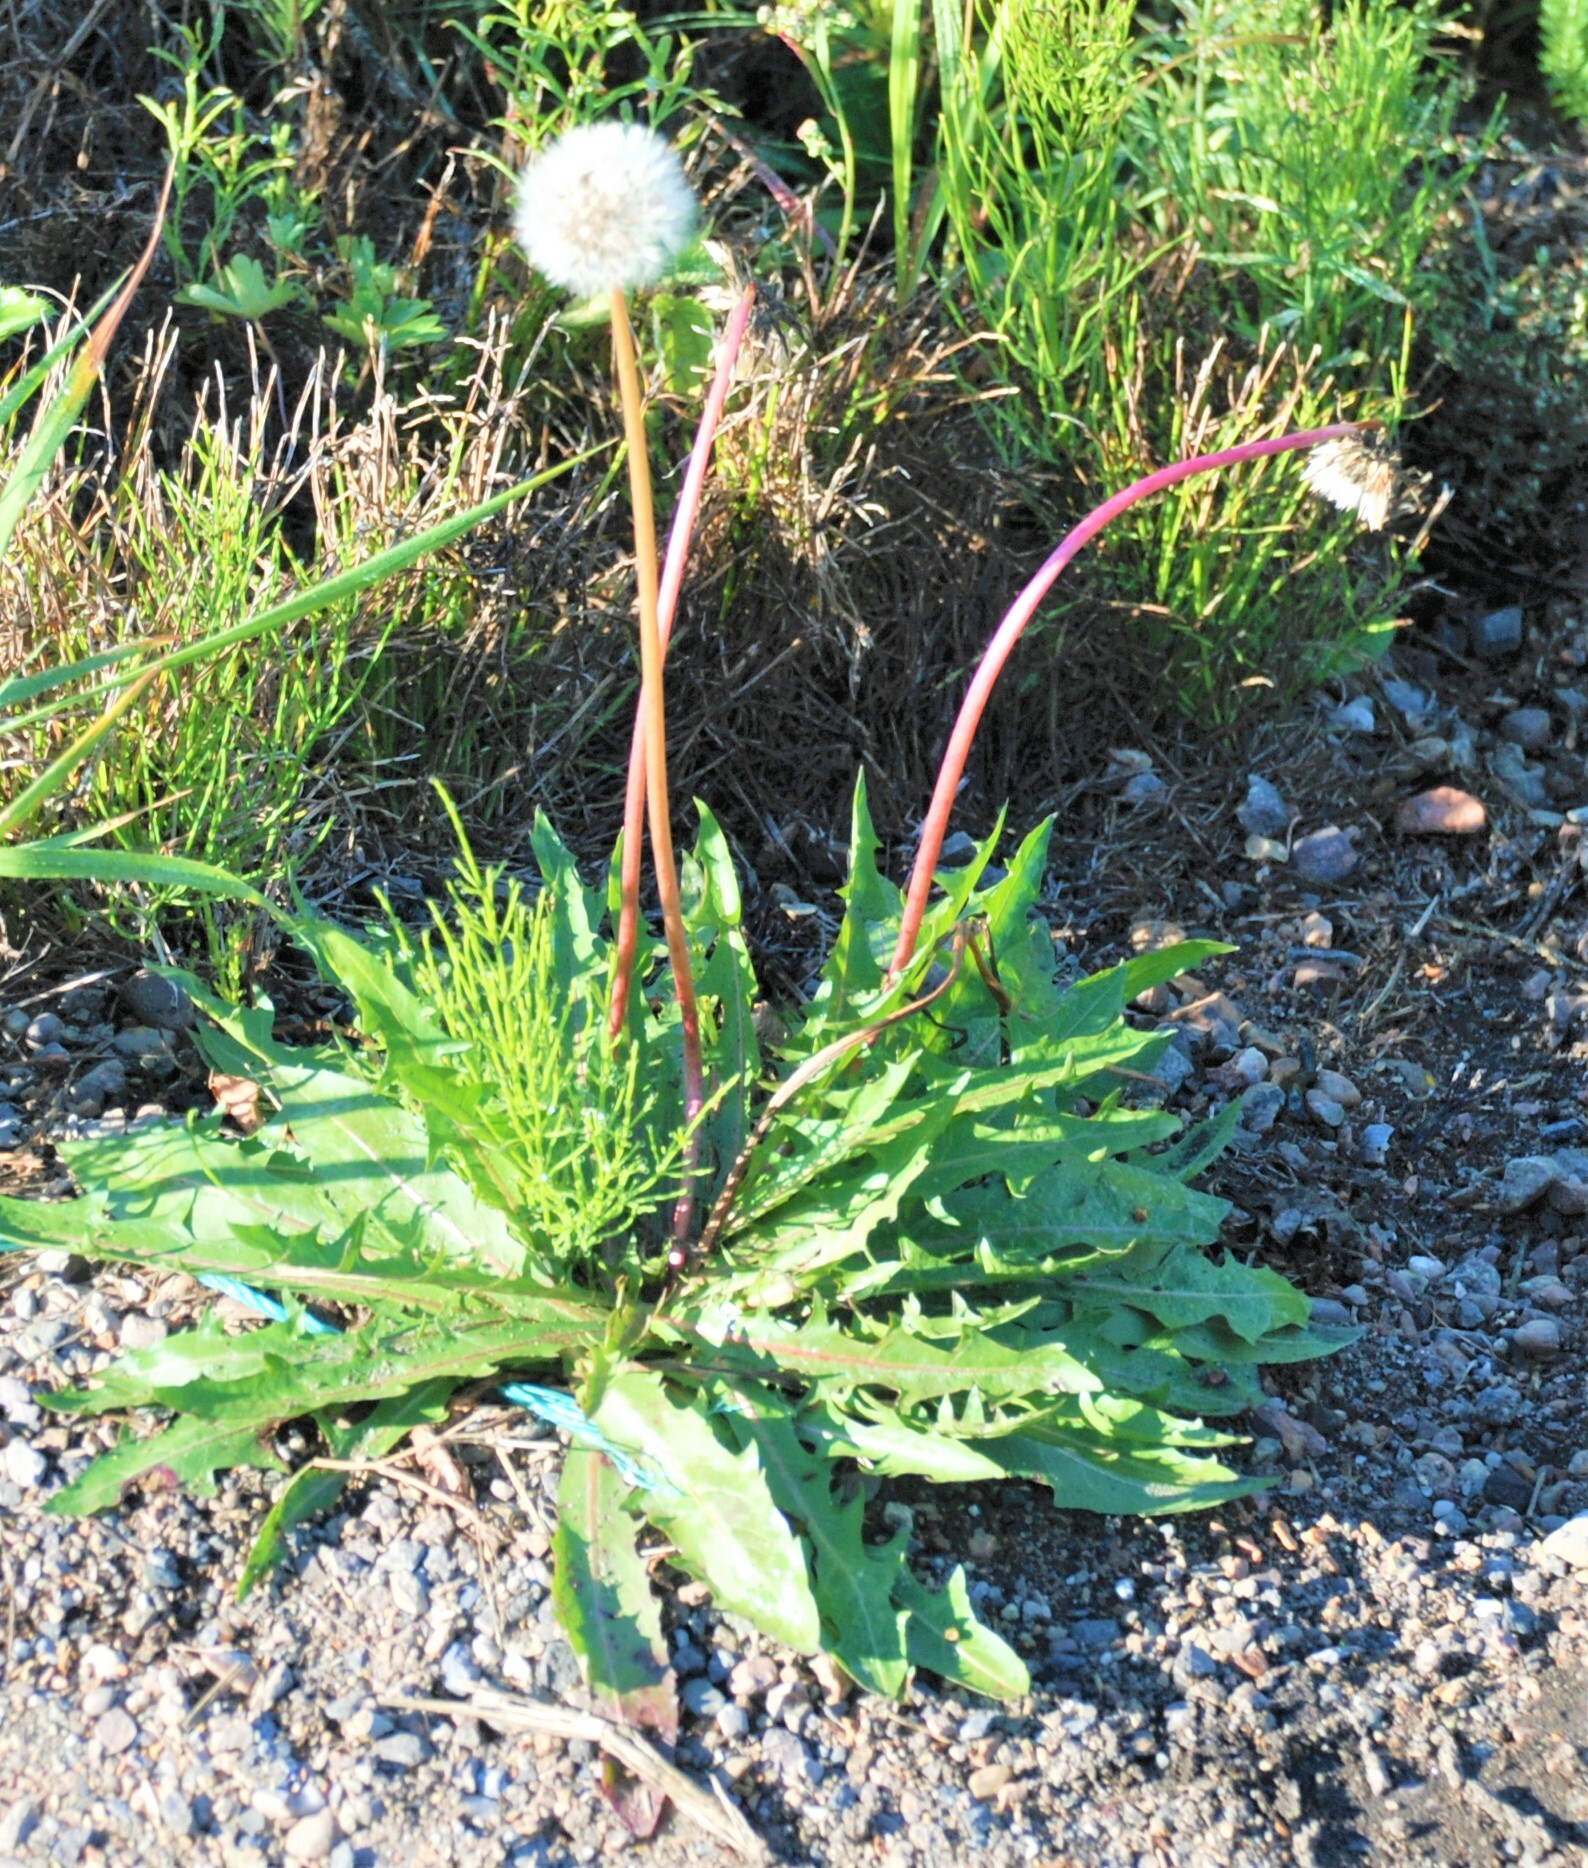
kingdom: Plantae
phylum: Tracheophyta
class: Magnoliopsida
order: Asterales
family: Asteraceae
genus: Taraxacum
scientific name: Taraxacum officinale
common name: Common dandelion
